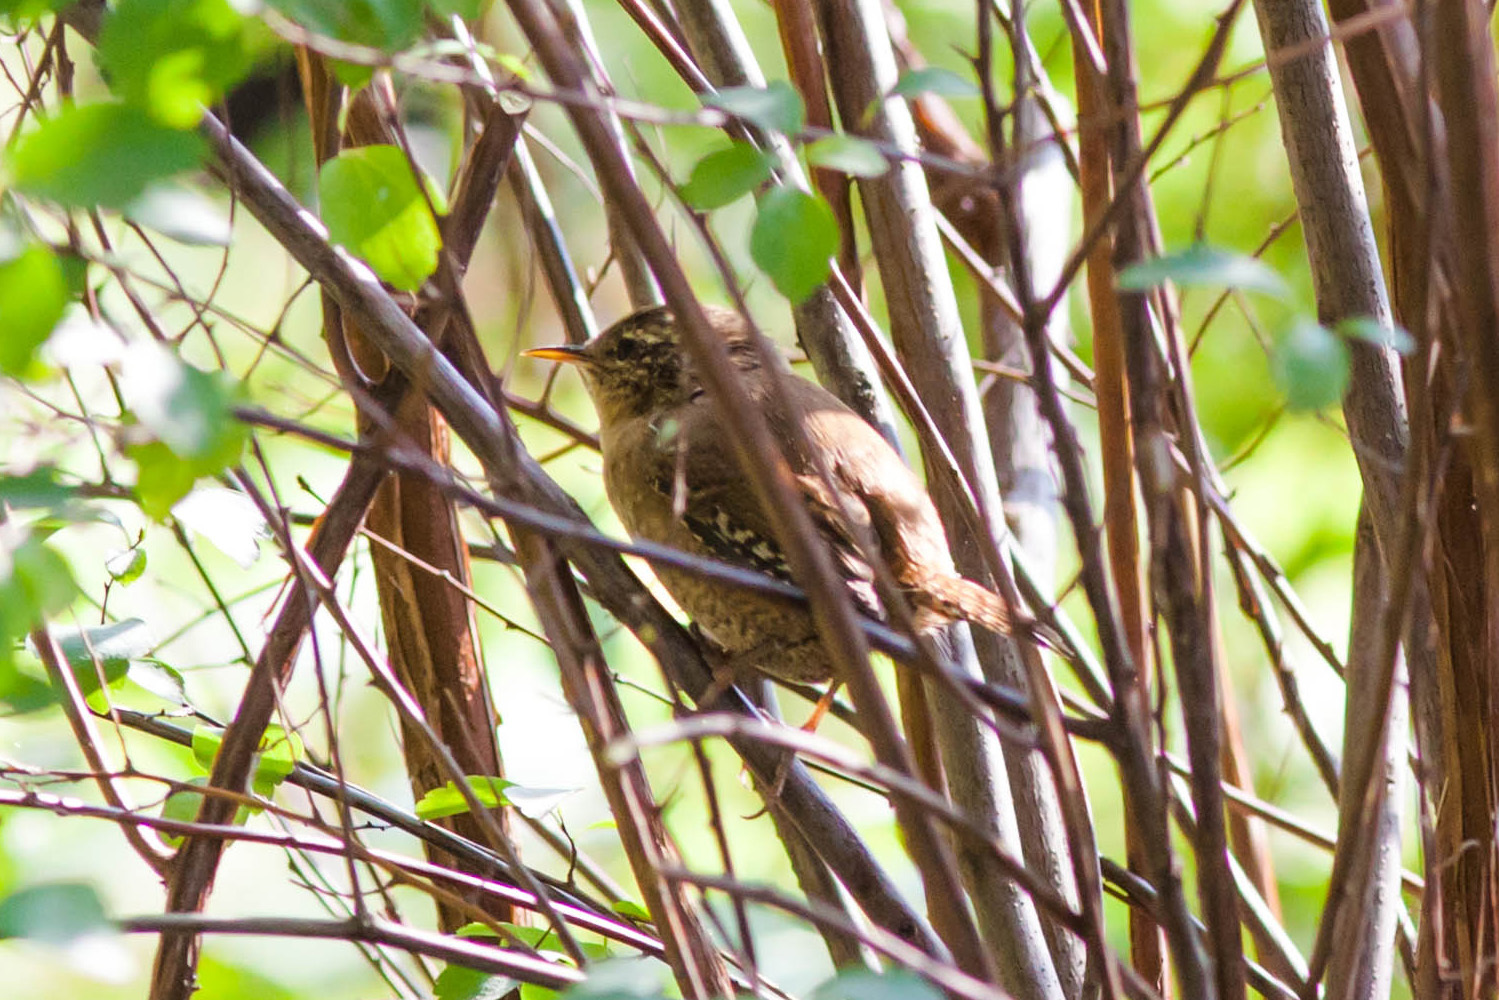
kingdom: Animalia
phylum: Chordata
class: Aves
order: Passeriformes
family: Troglodytidae
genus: Troglodytes
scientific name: Troglodytes troglodytes
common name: Eurasian wren
